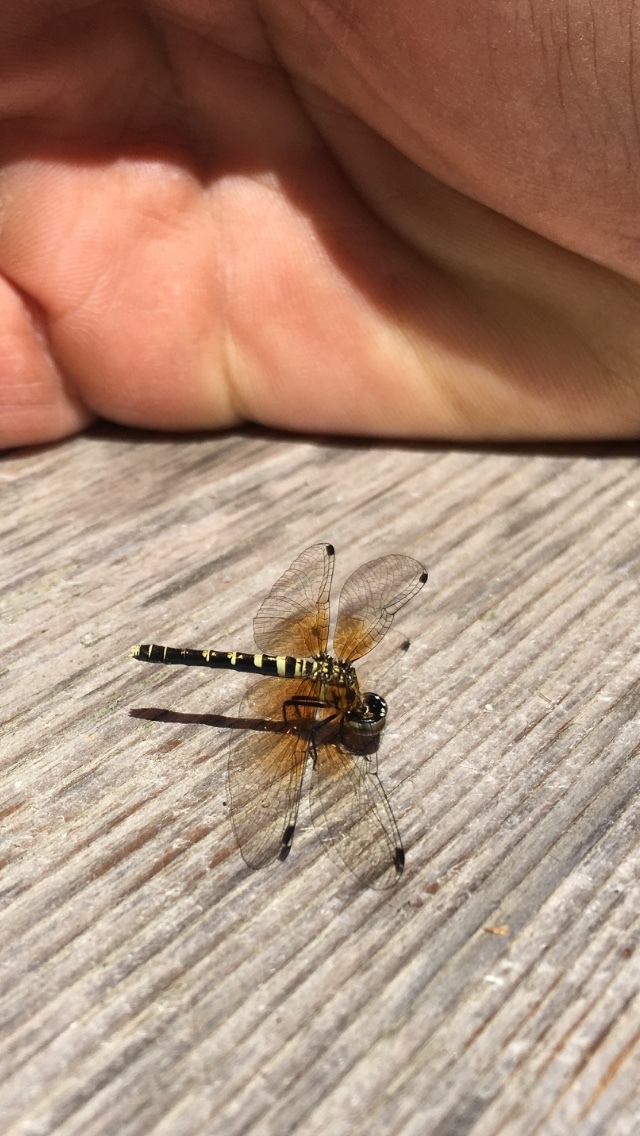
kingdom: Animalia
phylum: Arthropoda
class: Insecta
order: Odonata
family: Libellulidae
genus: Nannothemis
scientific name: Nannothemis bella
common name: Elfin skimmer
